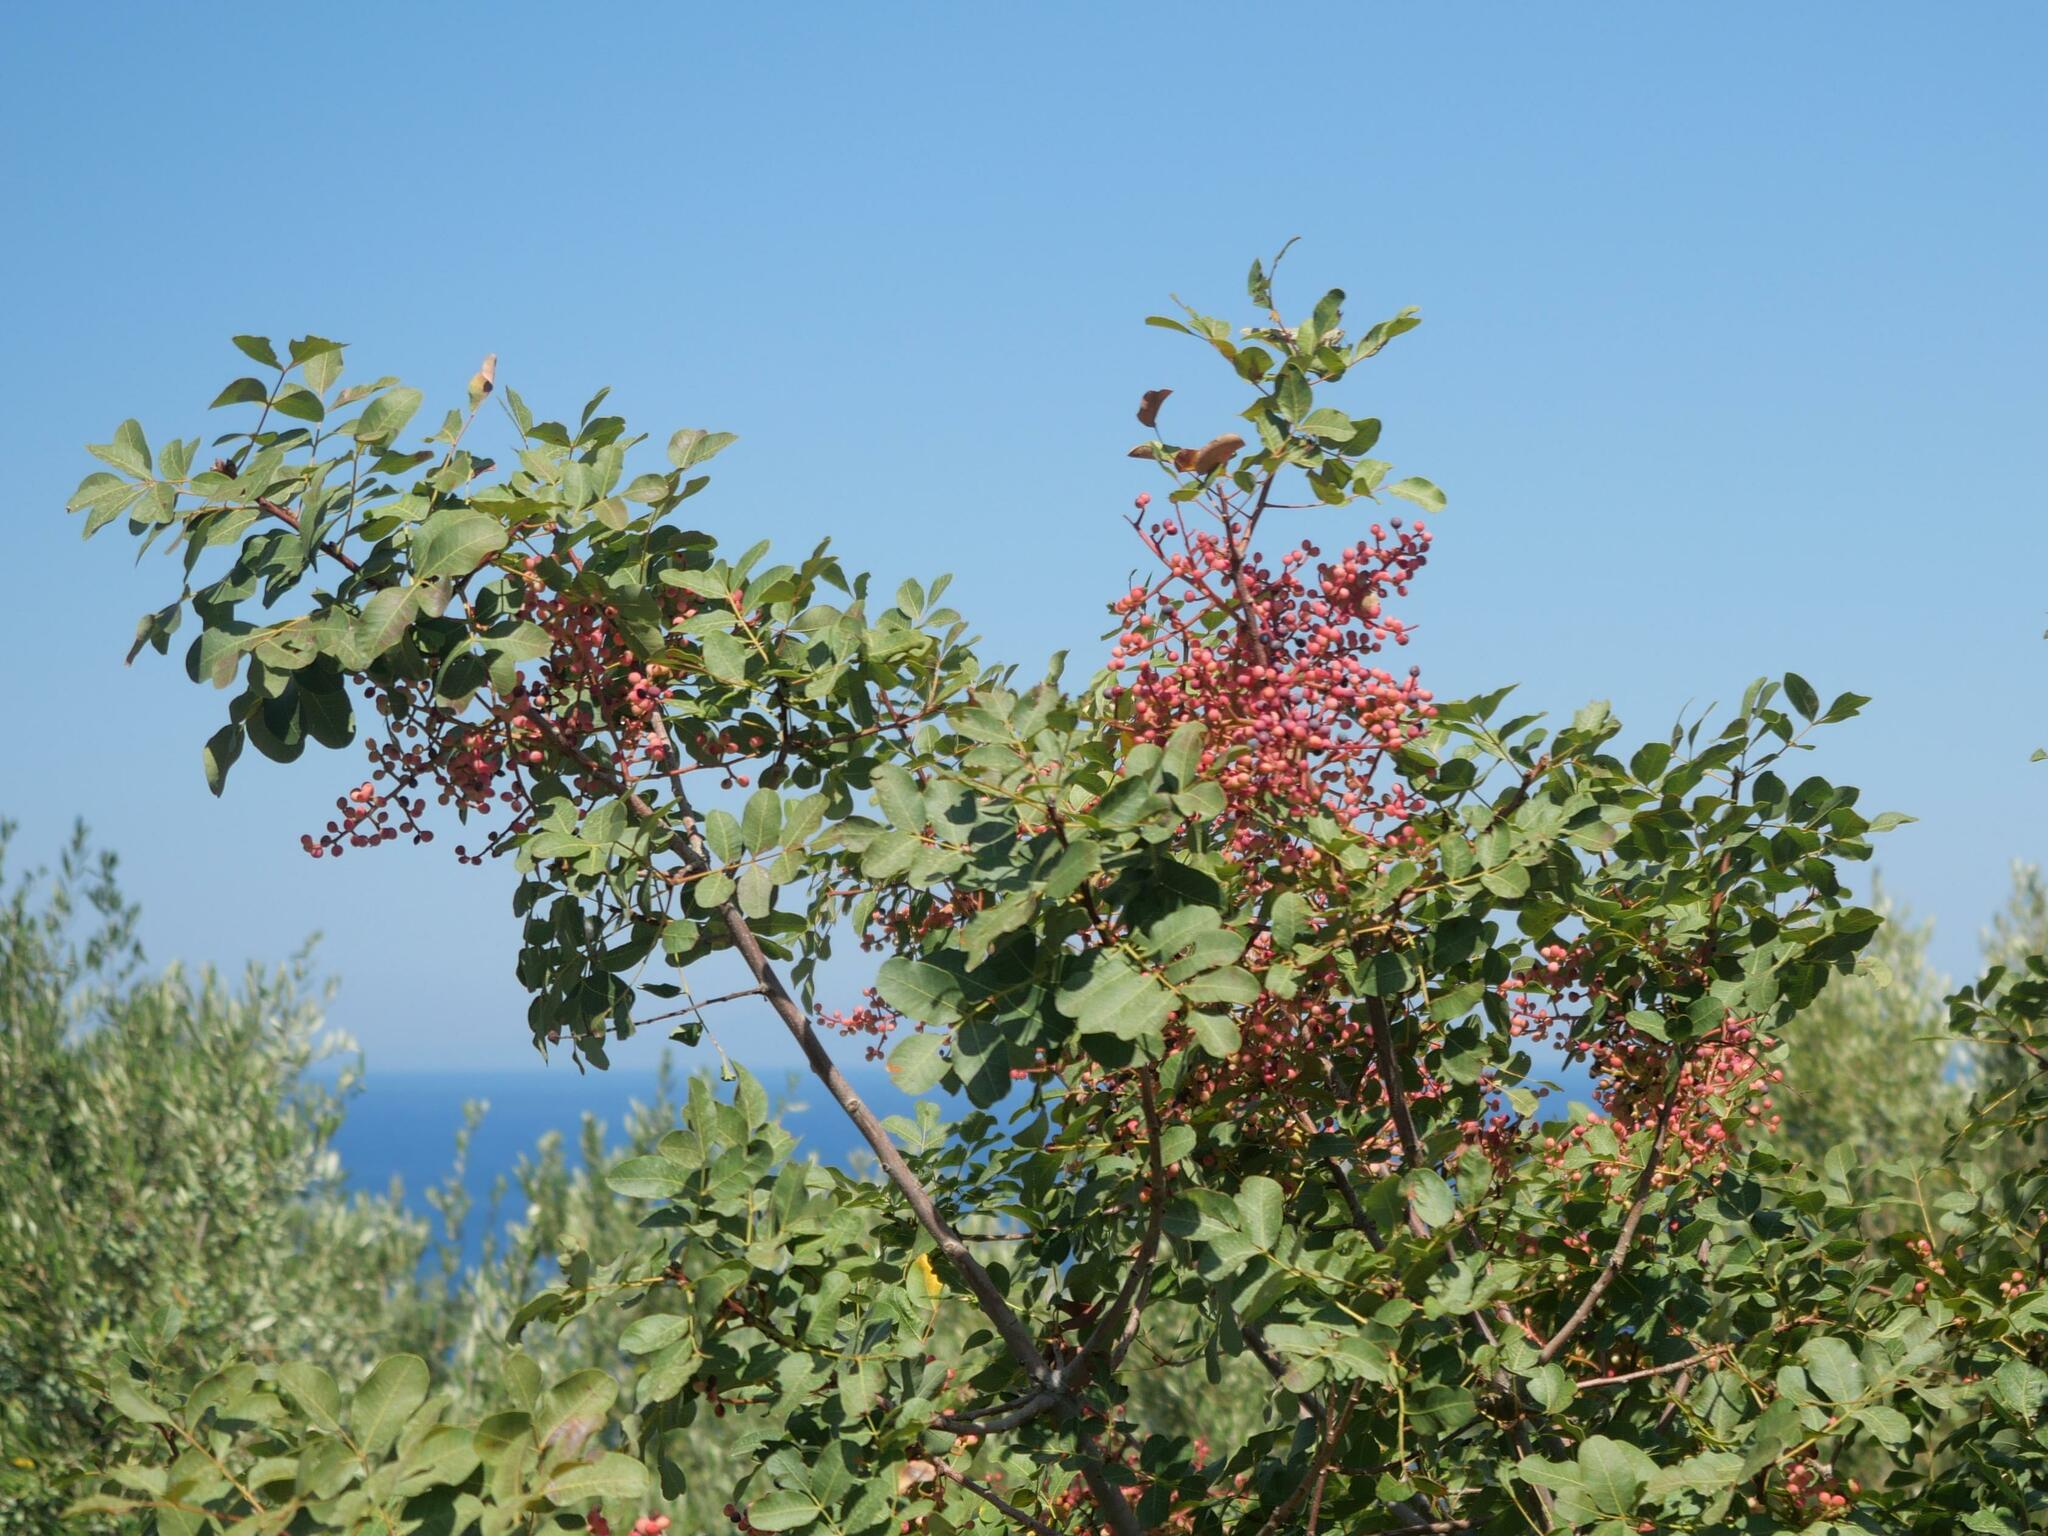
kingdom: Plantae
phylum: Tracheophyta
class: Magnoliopsida
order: Sapindales
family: Anacardiaceae
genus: Pistacia
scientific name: Pistacia terebinthus
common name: Terebinth
